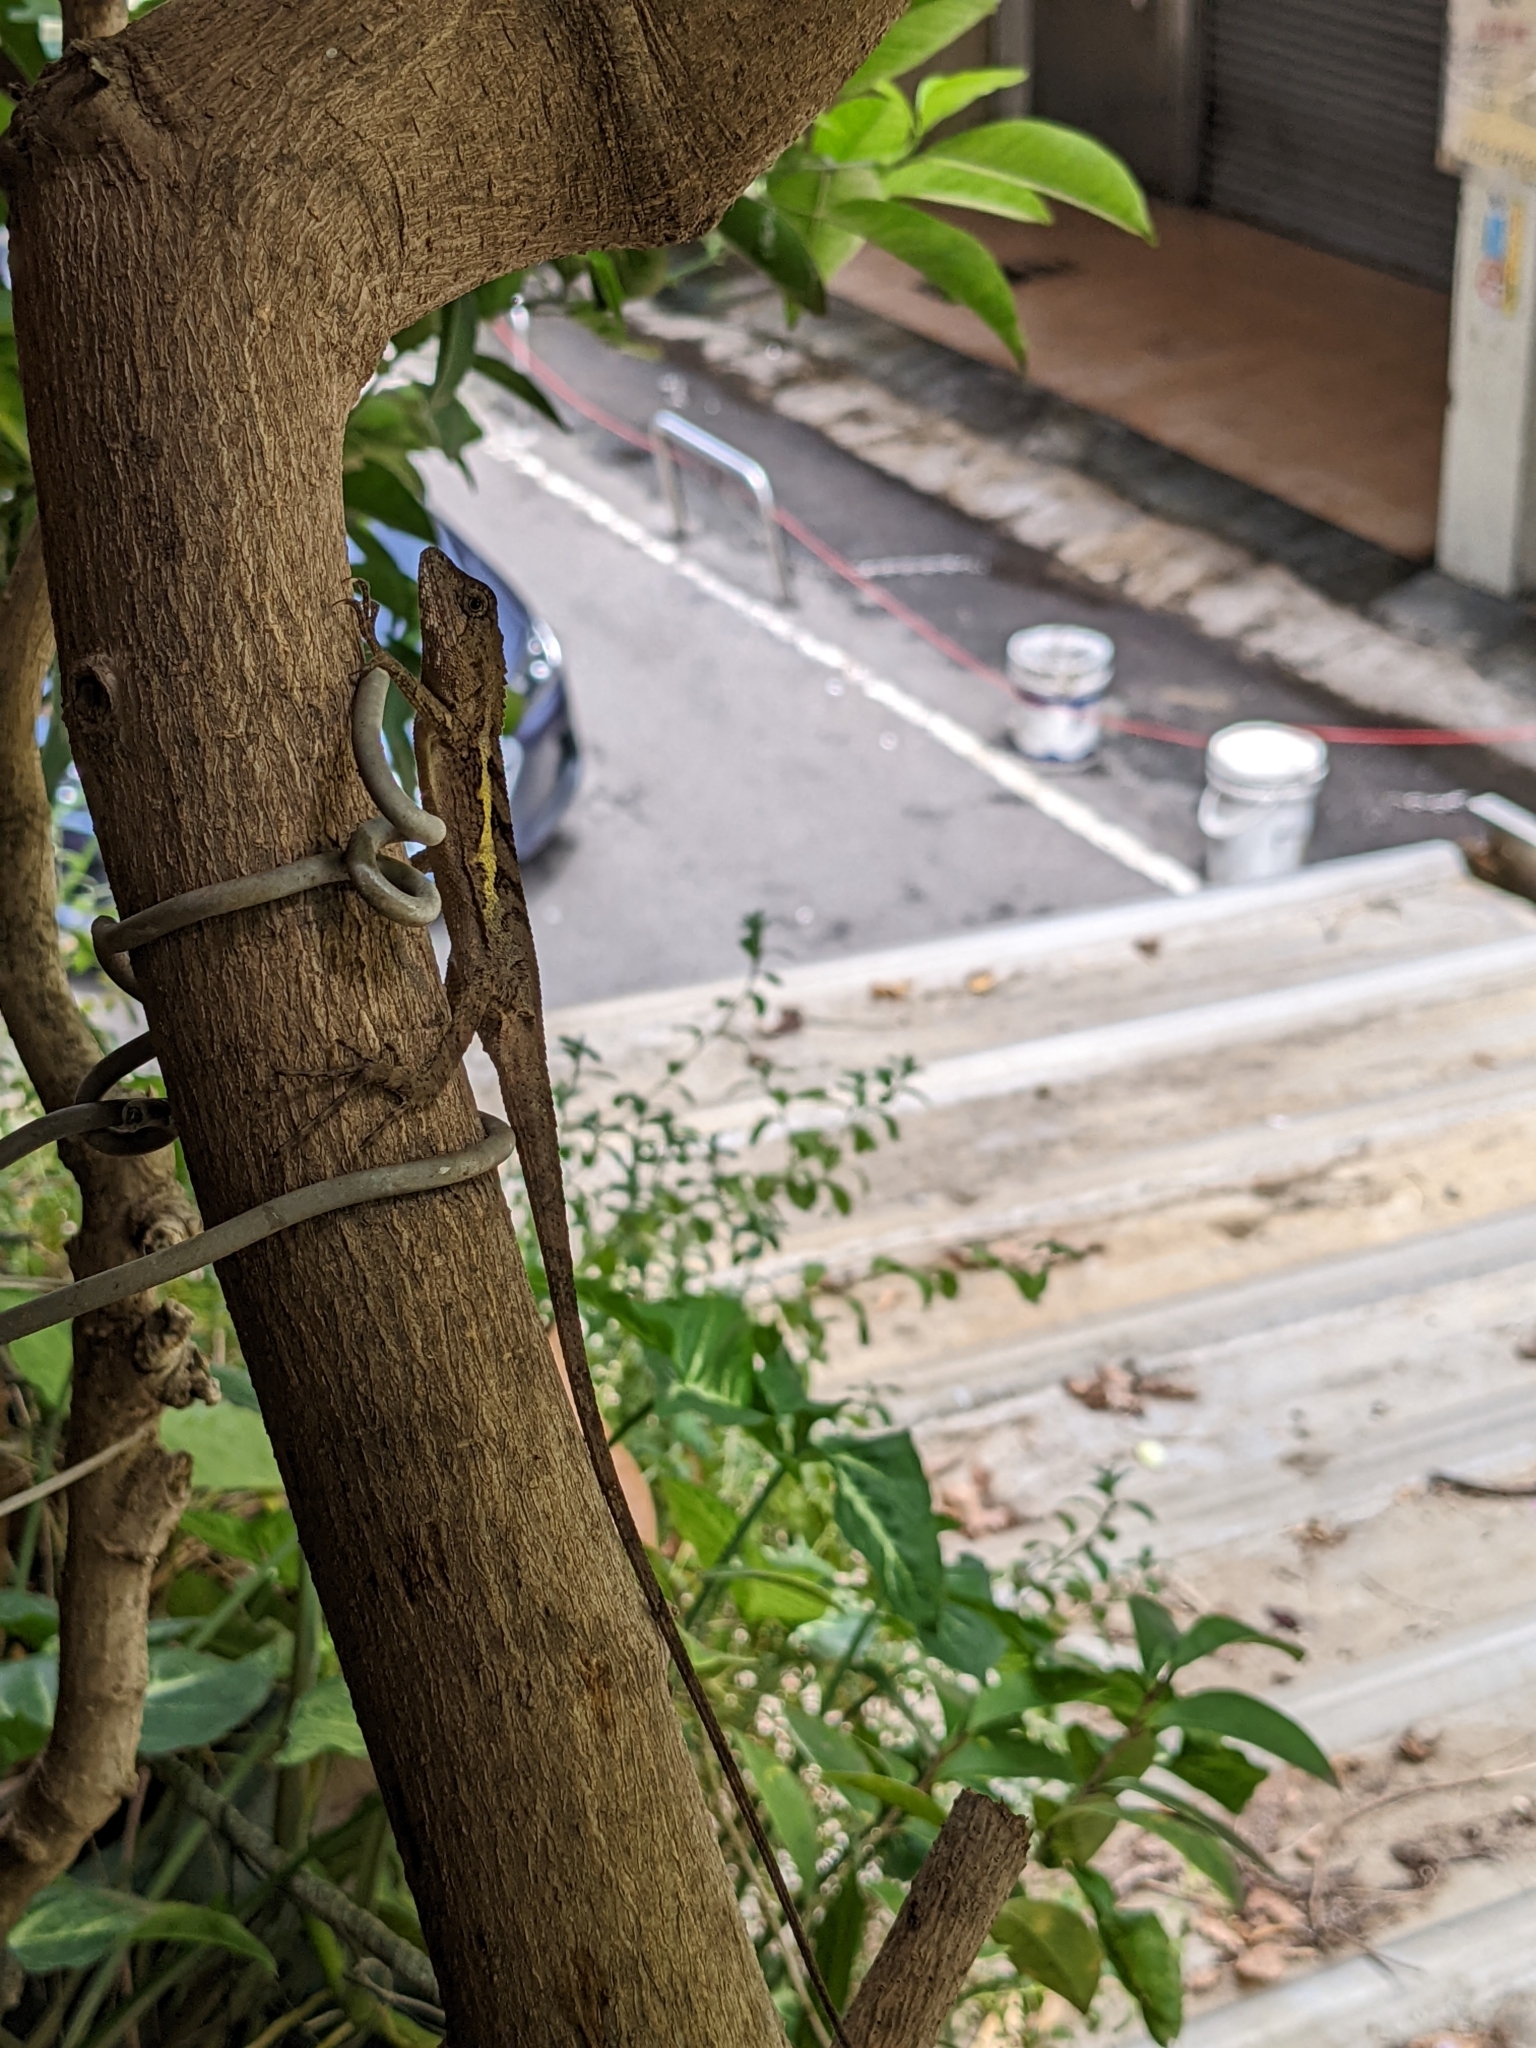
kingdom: Animalia
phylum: Chordata
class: Squamata
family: Agamidae
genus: Diploderma
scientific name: Diploderma swinhonis
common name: Taiwan japalure
